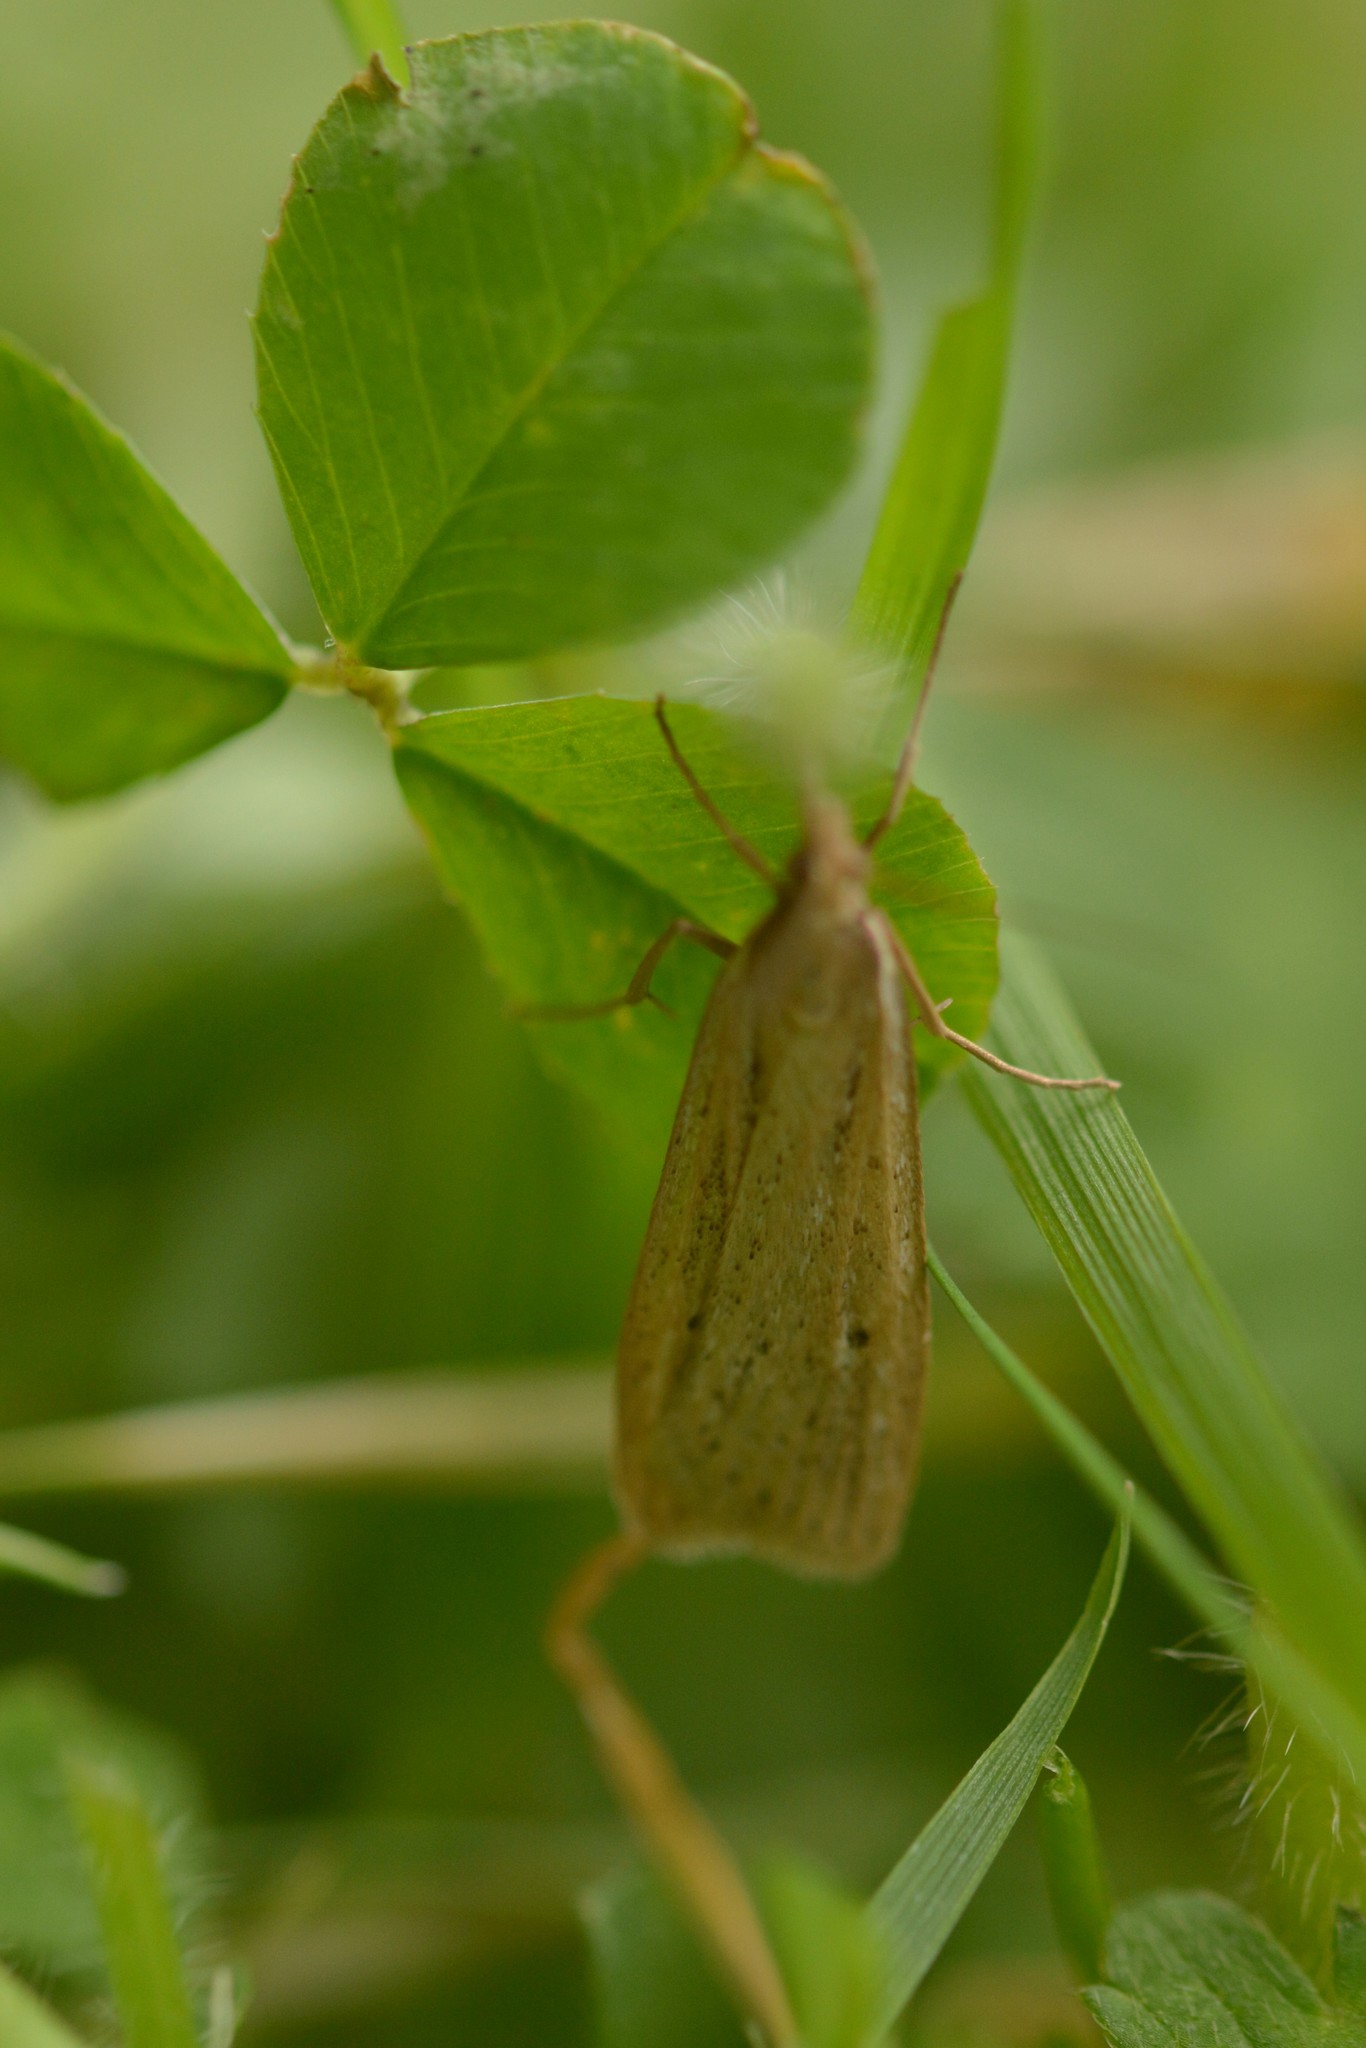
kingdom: Animalia
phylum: Arthropoda
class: Insecta
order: Lepidoptera
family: Crambidae
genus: Eudonia
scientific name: Eudonia sabulosella
